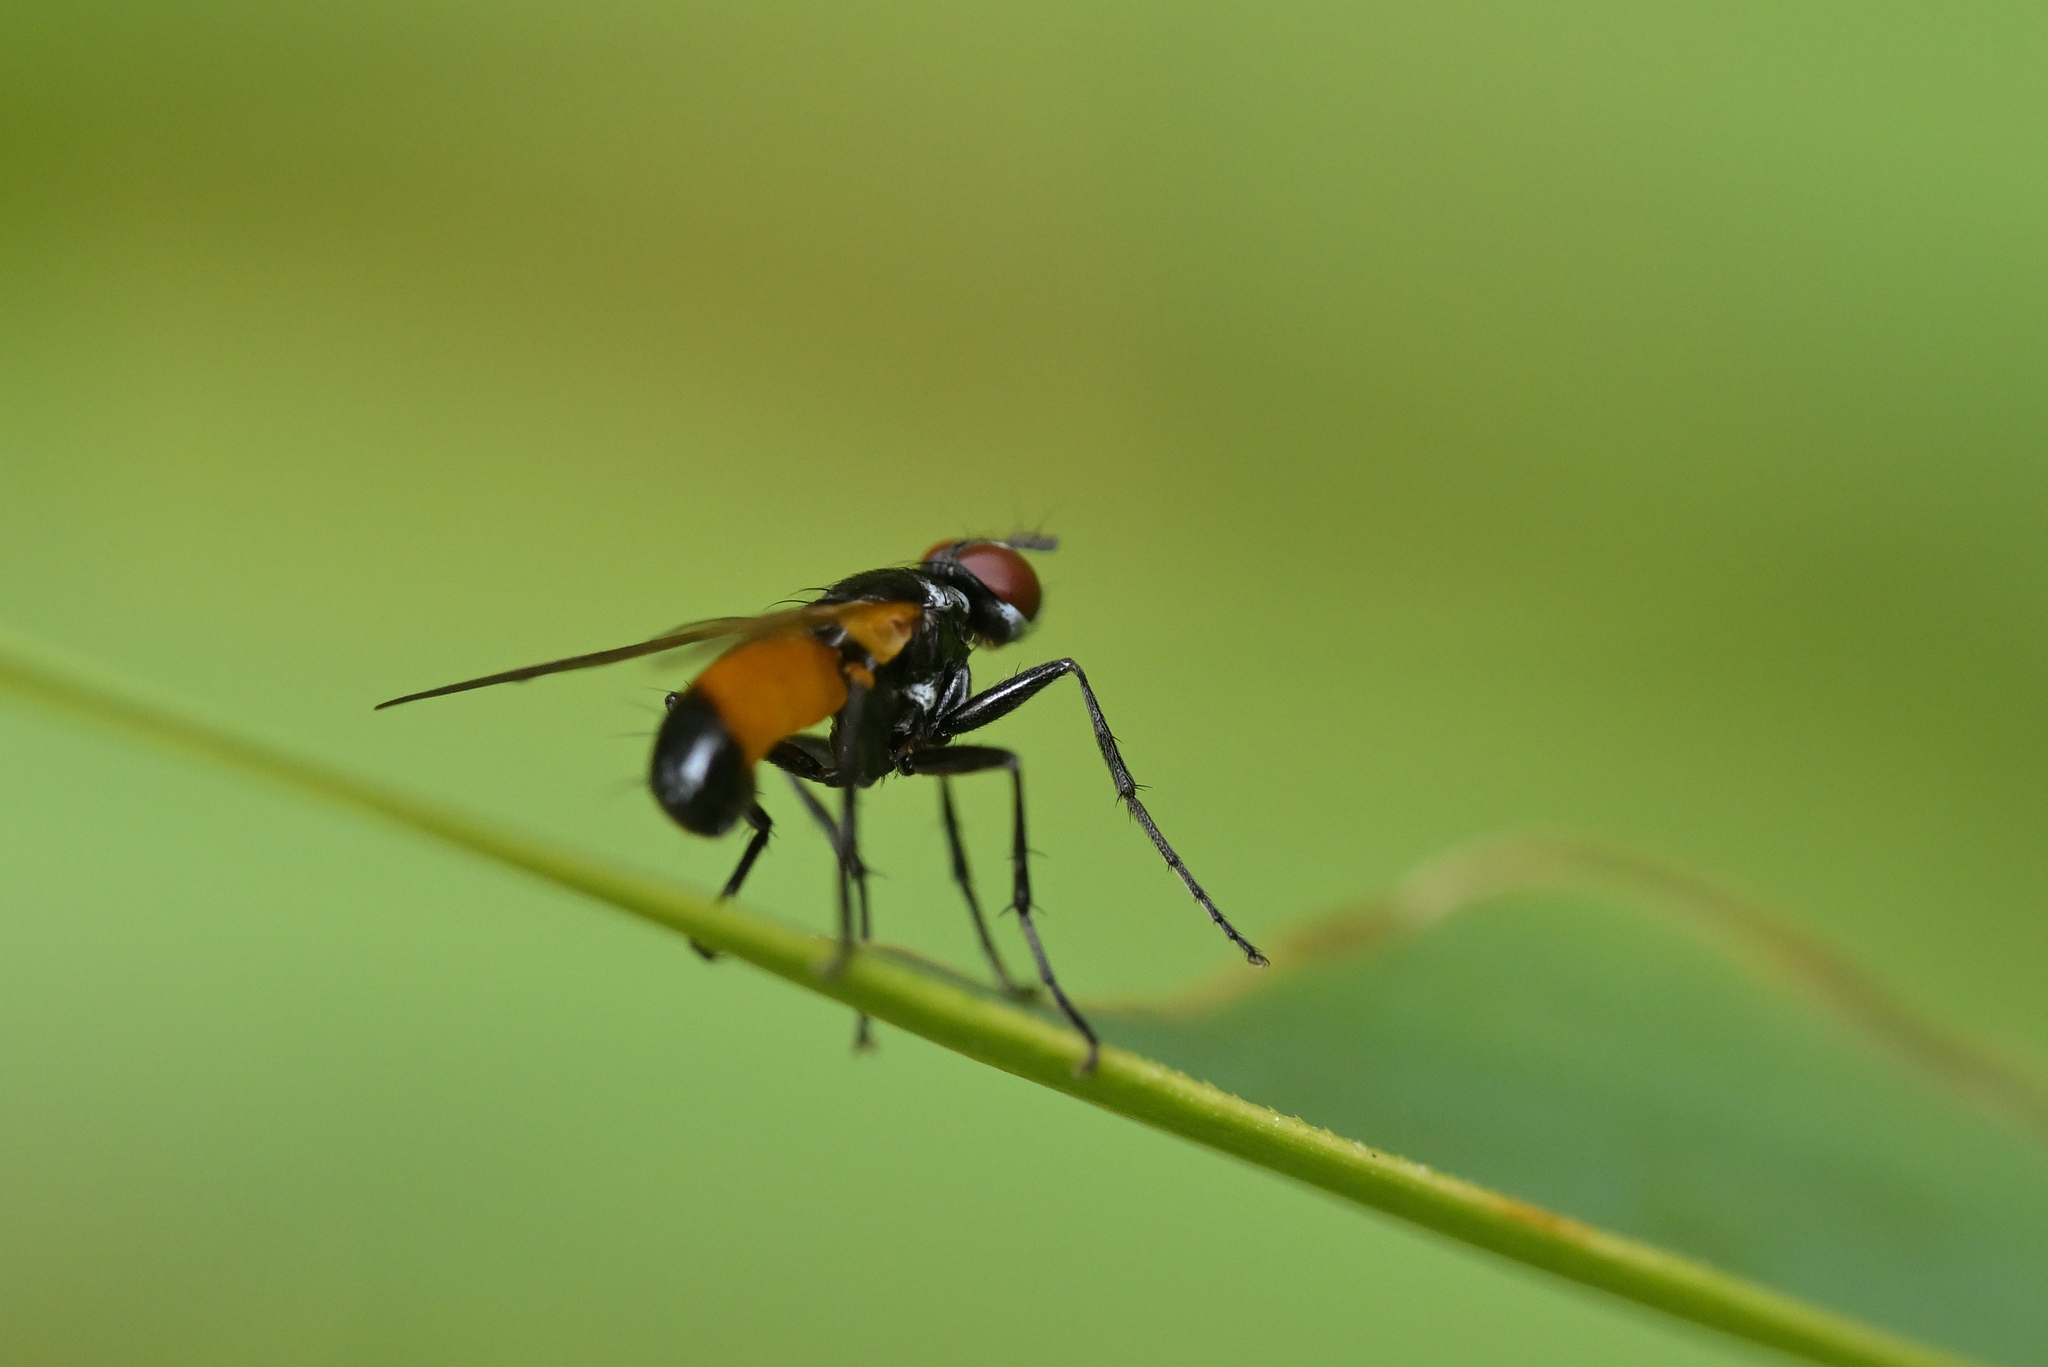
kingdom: Animalia
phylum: Arthropoda
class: Insecta
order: Diptera
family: Tachinidae
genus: Huttonobesseria
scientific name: Huttonobesseria verecunda
